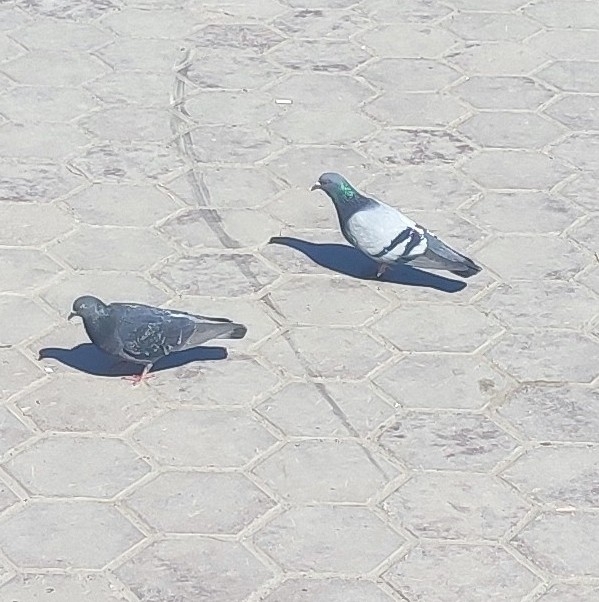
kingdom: Animalia
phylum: Chordata
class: Aves
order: Columbiformes
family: Columbidae
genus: Columba
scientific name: Columba livia
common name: Rock pigeon
